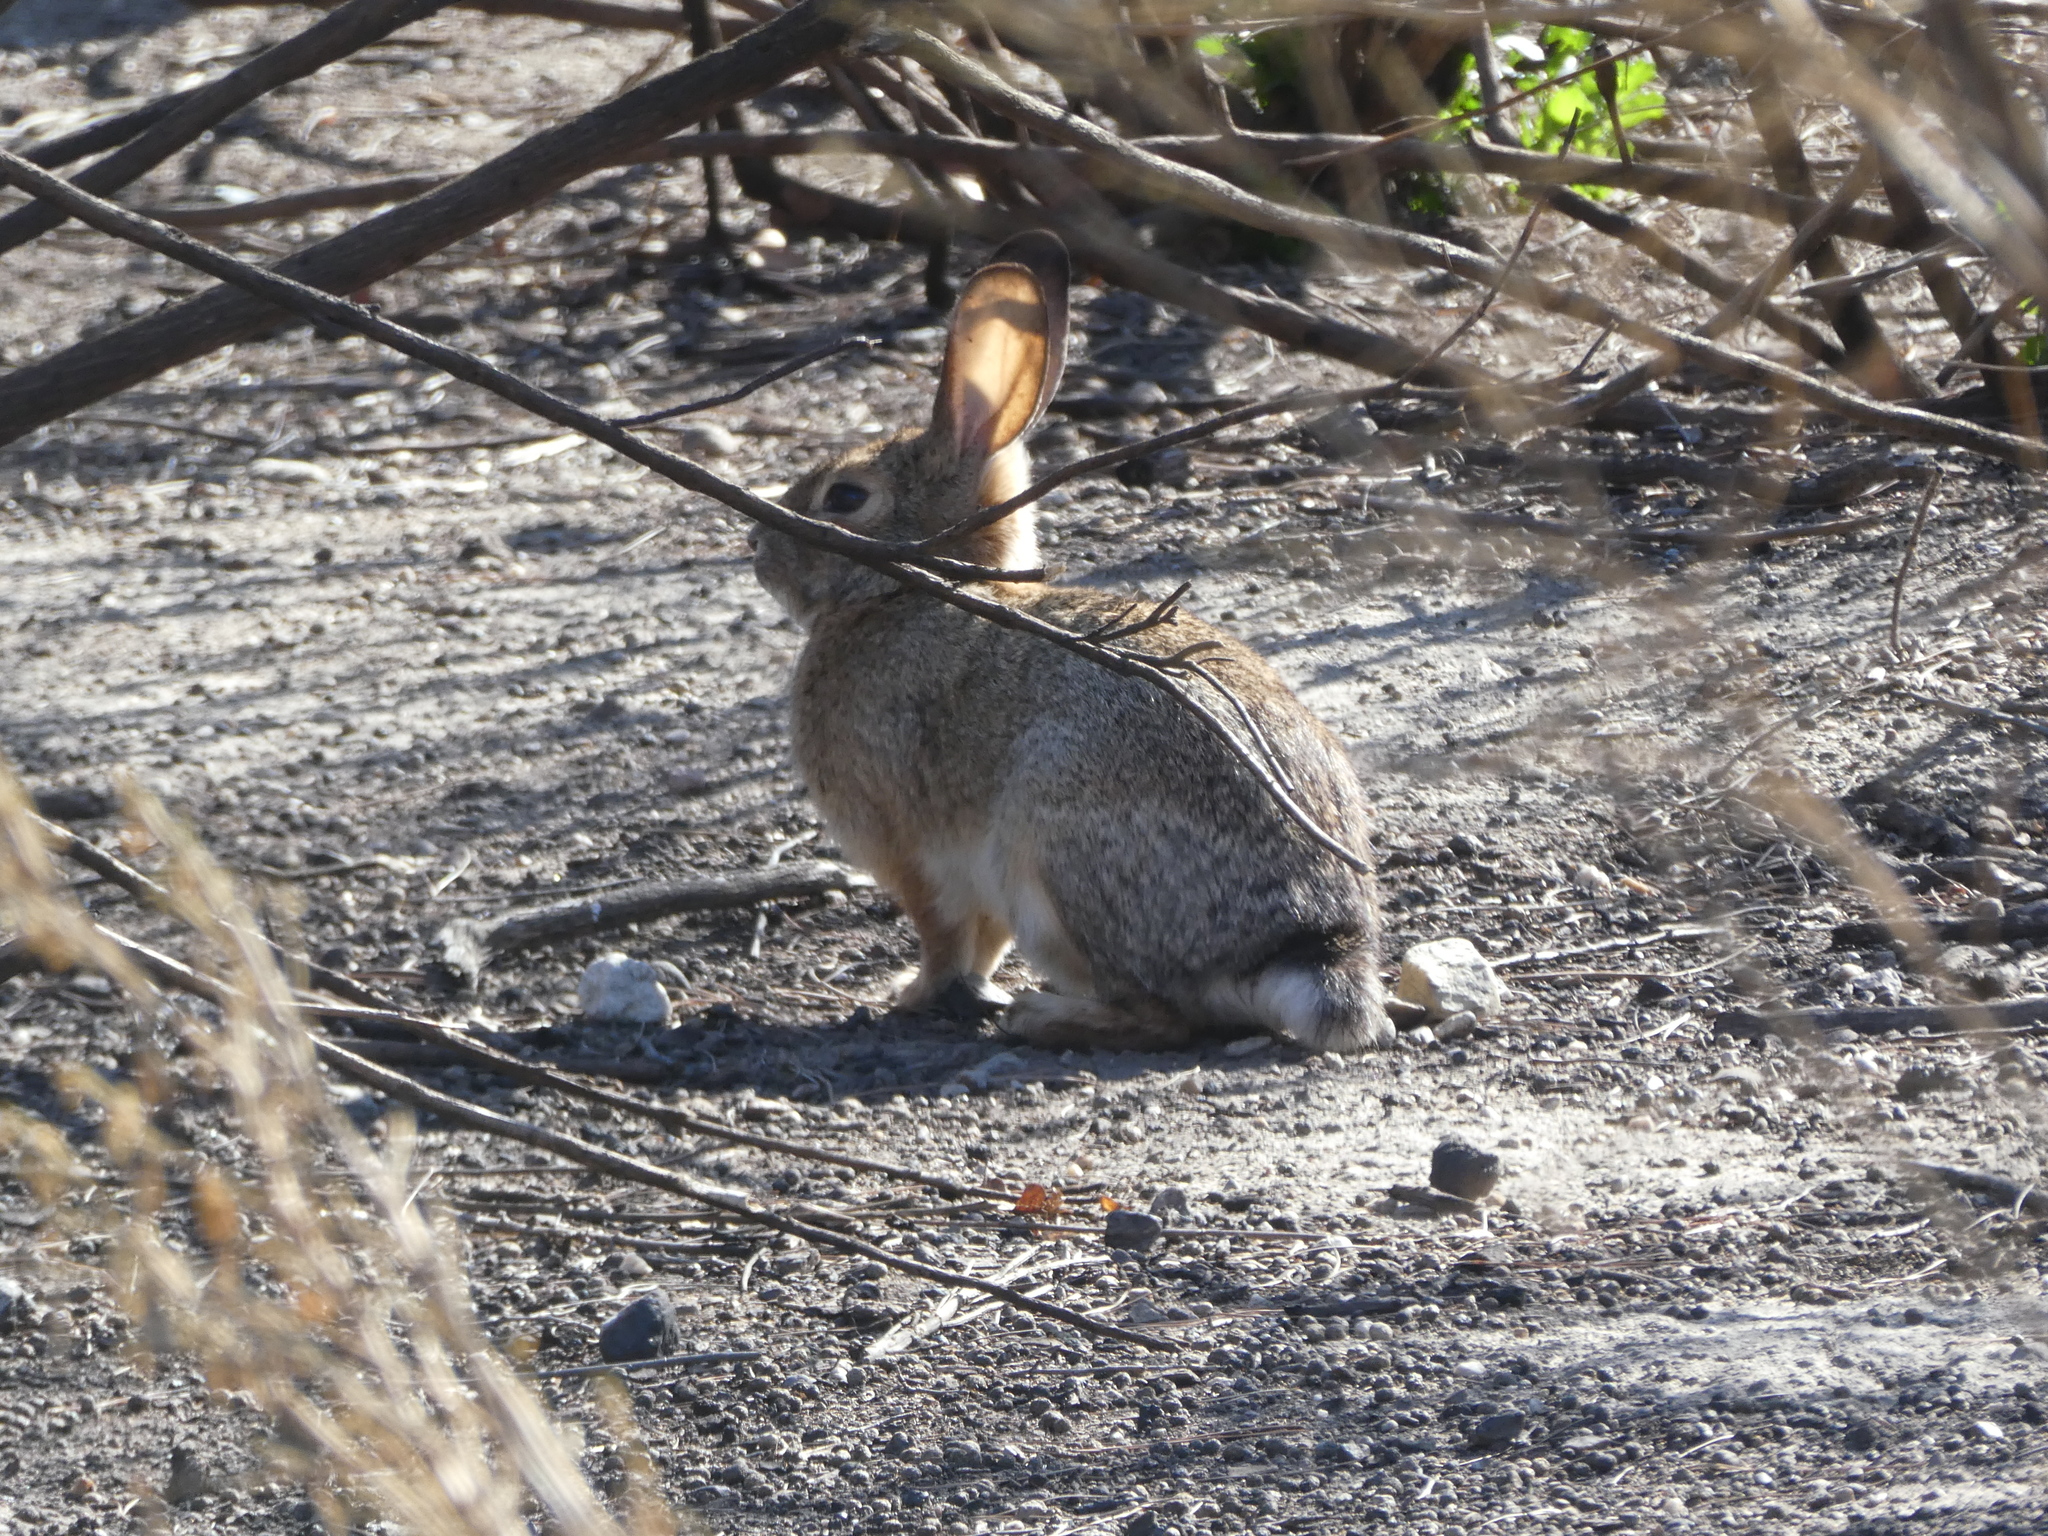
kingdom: Animalia
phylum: Chordata
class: Mammalia
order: Lagomorpha
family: Leporidae
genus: Sylvilagus
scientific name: Sylvilagus audubonii
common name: Desert cottontail
